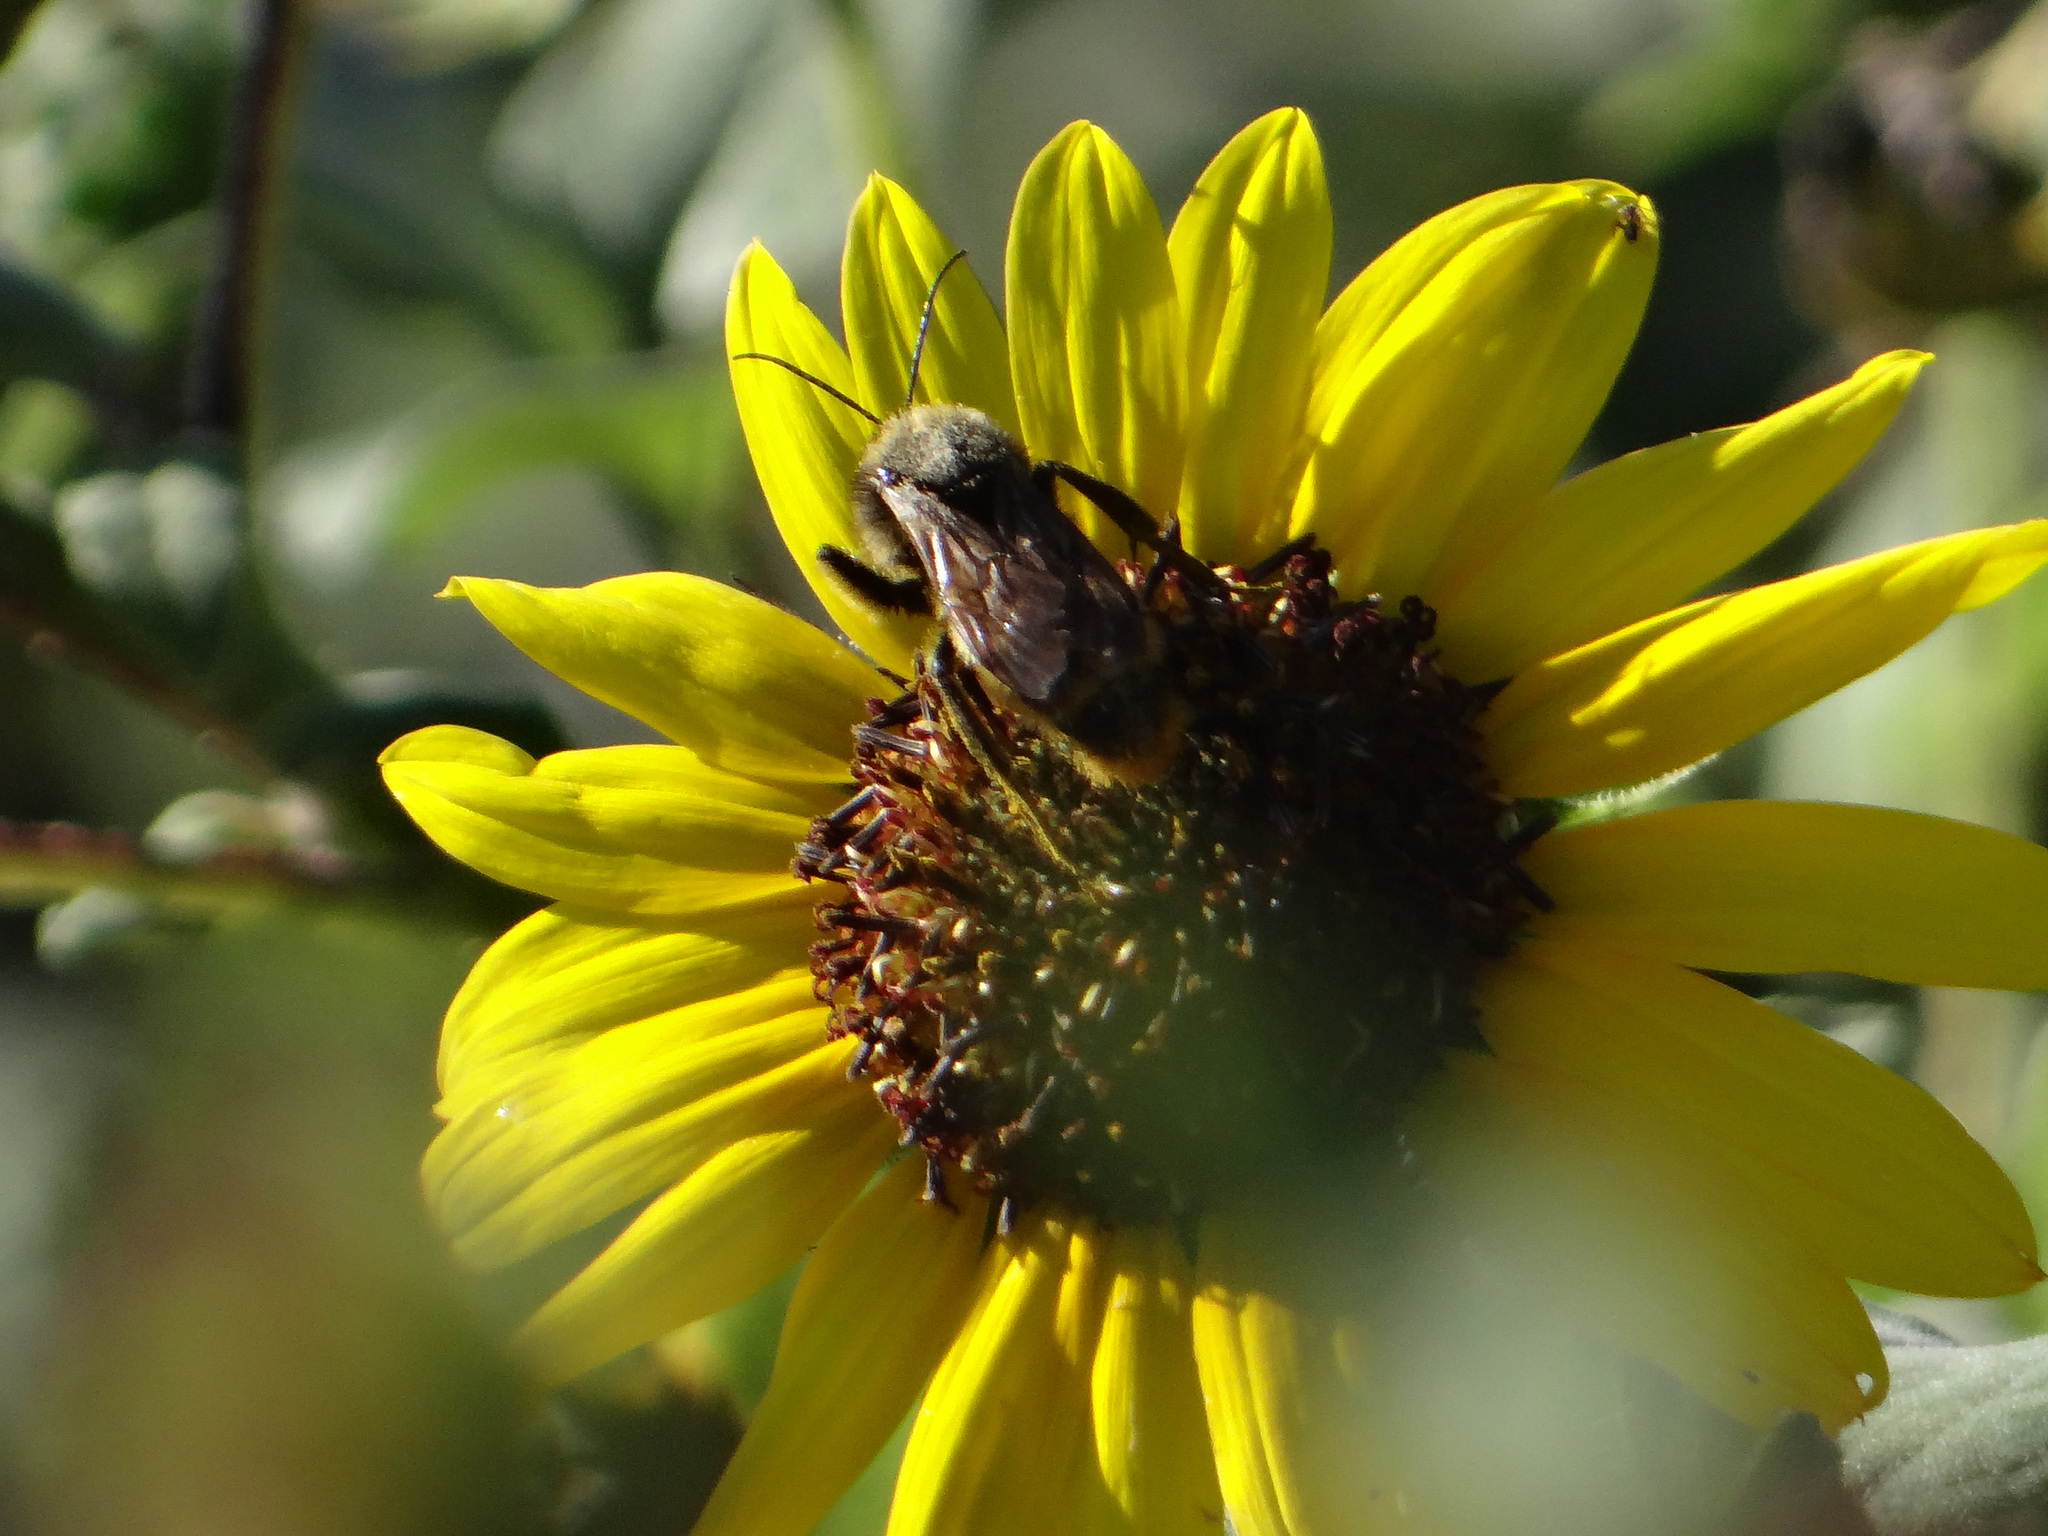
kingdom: Animalia
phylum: Arthropoda
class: Insecta
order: Hymenoptera
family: Apidae
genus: Bombus
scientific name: Bombus pensylvanicus
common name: Bumble bee
